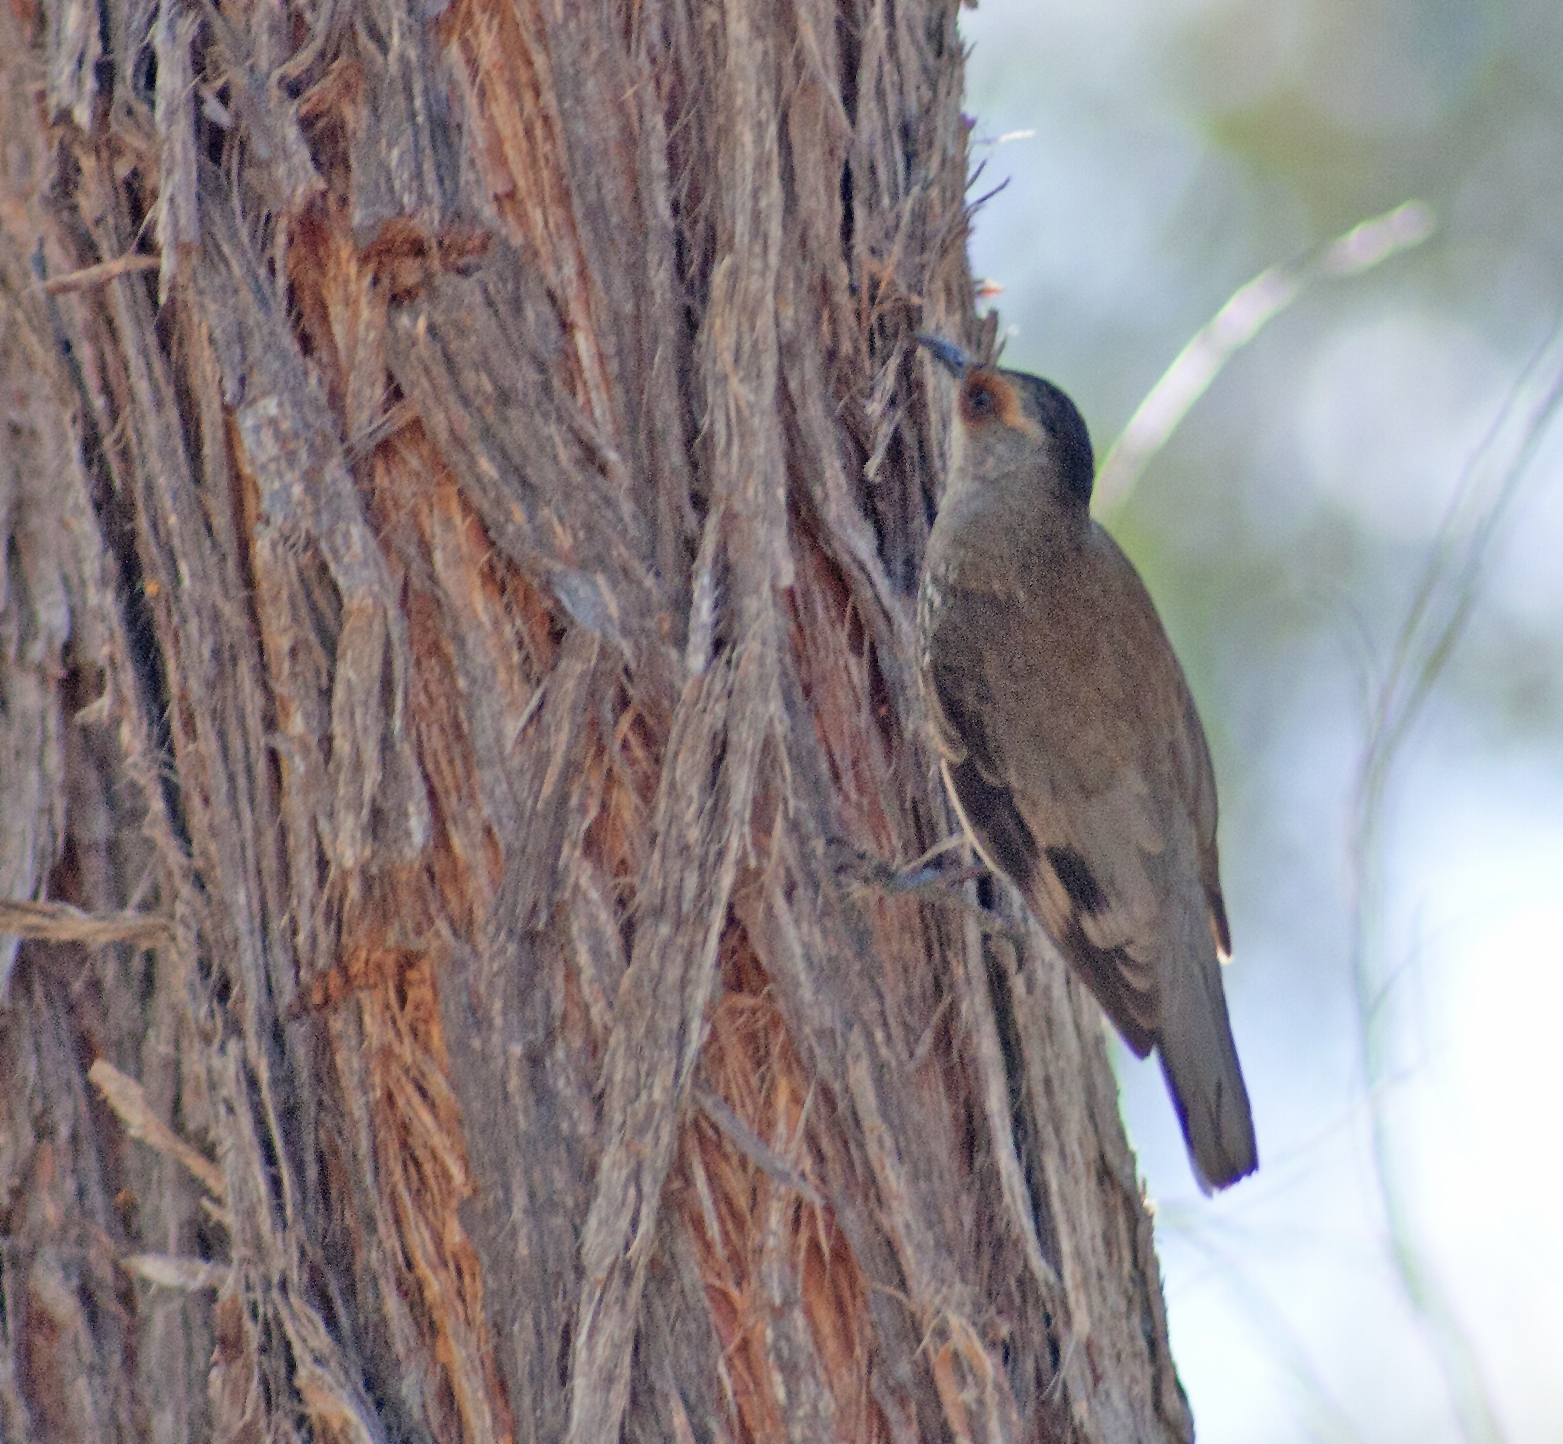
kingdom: Animalia
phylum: Chordata
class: Aves
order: Passeriformes
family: Climacteridae
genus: Climacteris
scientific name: Climacteris erythrops
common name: Red-browed treecreeper
